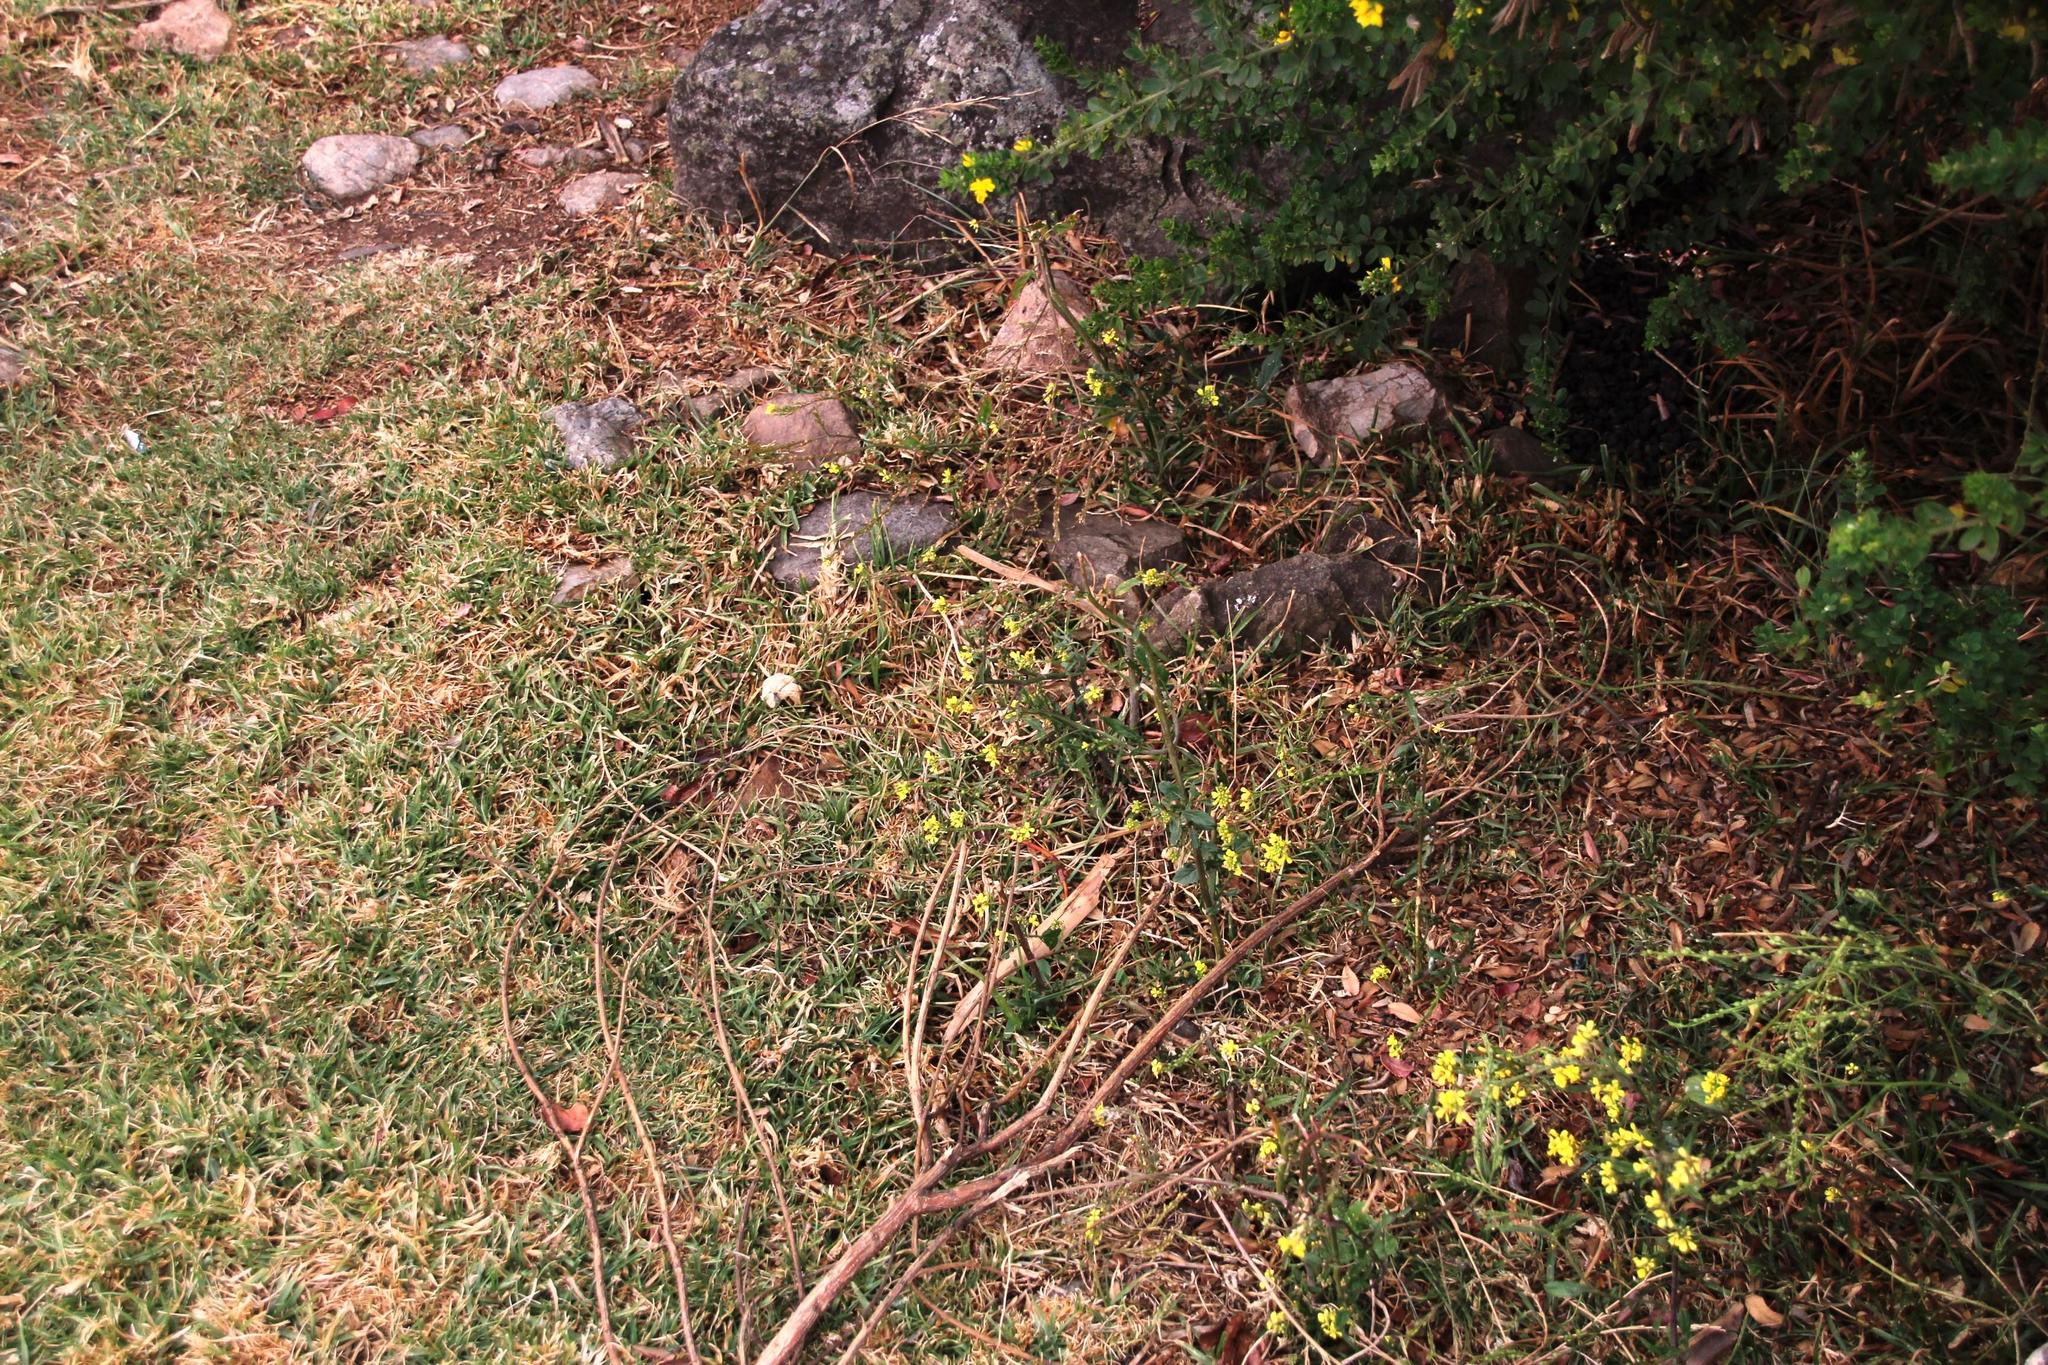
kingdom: Plantae
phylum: Tracheophyta
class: Magnoliopsida
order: Brassicales
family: Brassicaceae
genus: Rapistrum
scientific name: Rapistrum rugosum
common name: Annual bastardcabbage
